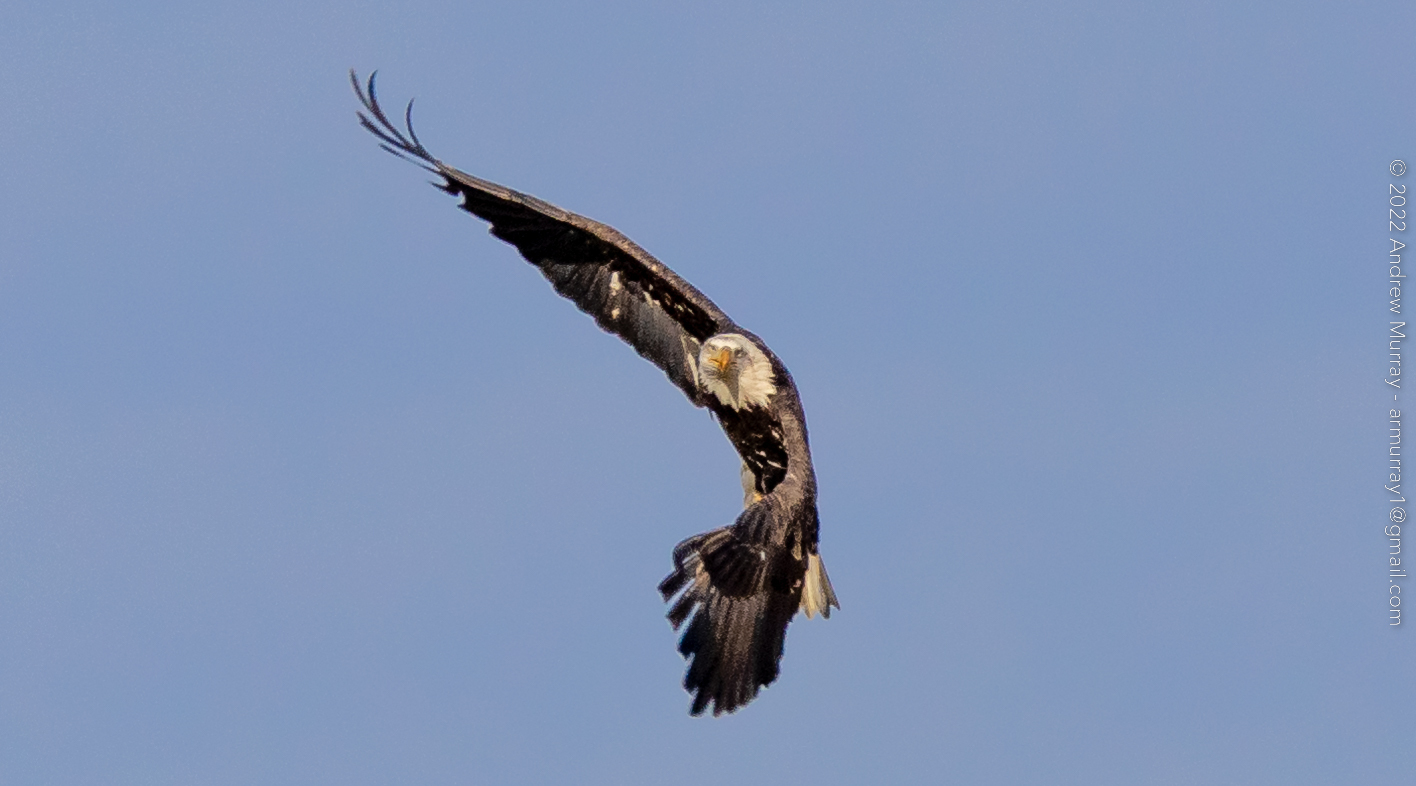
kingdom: Animalia
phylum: Chordata
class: Aves
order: Accipitriformes
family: Accipitridae
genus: Haliaeetus
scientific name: Haliaeetus leucocephalus
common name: Bald eagle
